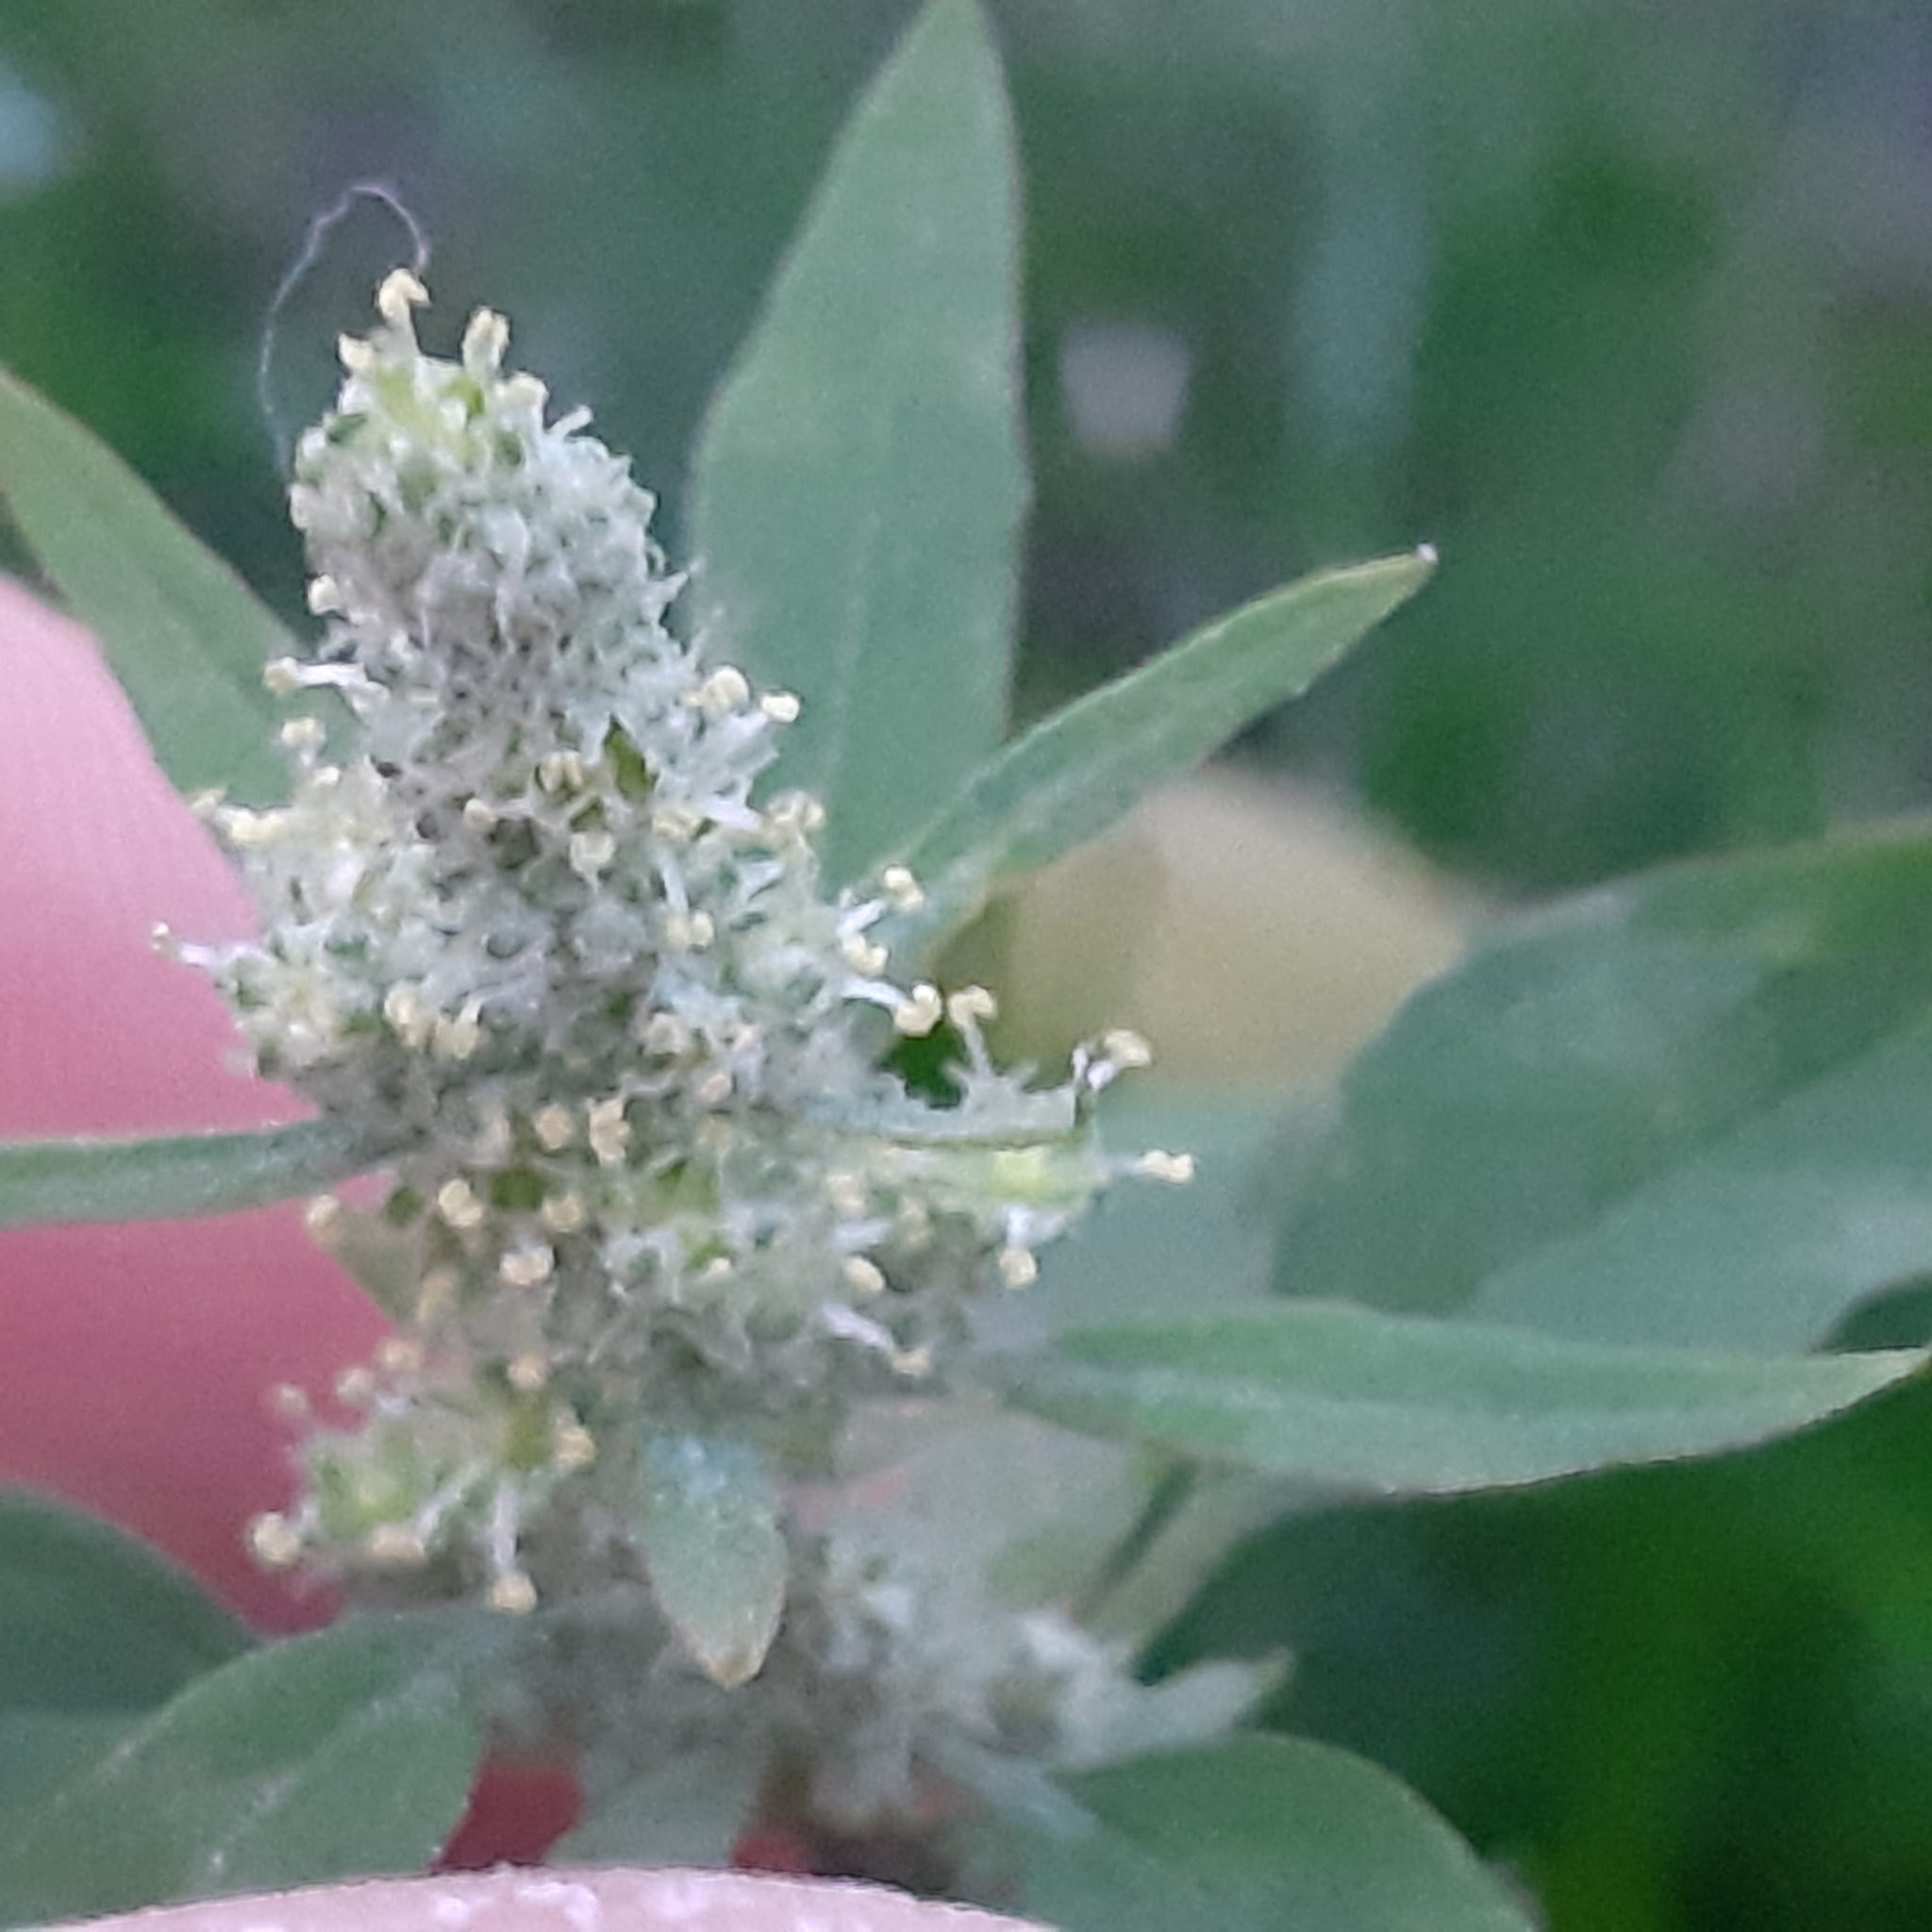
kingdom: Plantae
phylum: Tracheophyta
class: Magnoliopsida
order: Caryophyllales
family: Amaranthaceae
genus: Chenopodium
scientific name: Chenopodium album
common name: Fat-hen
